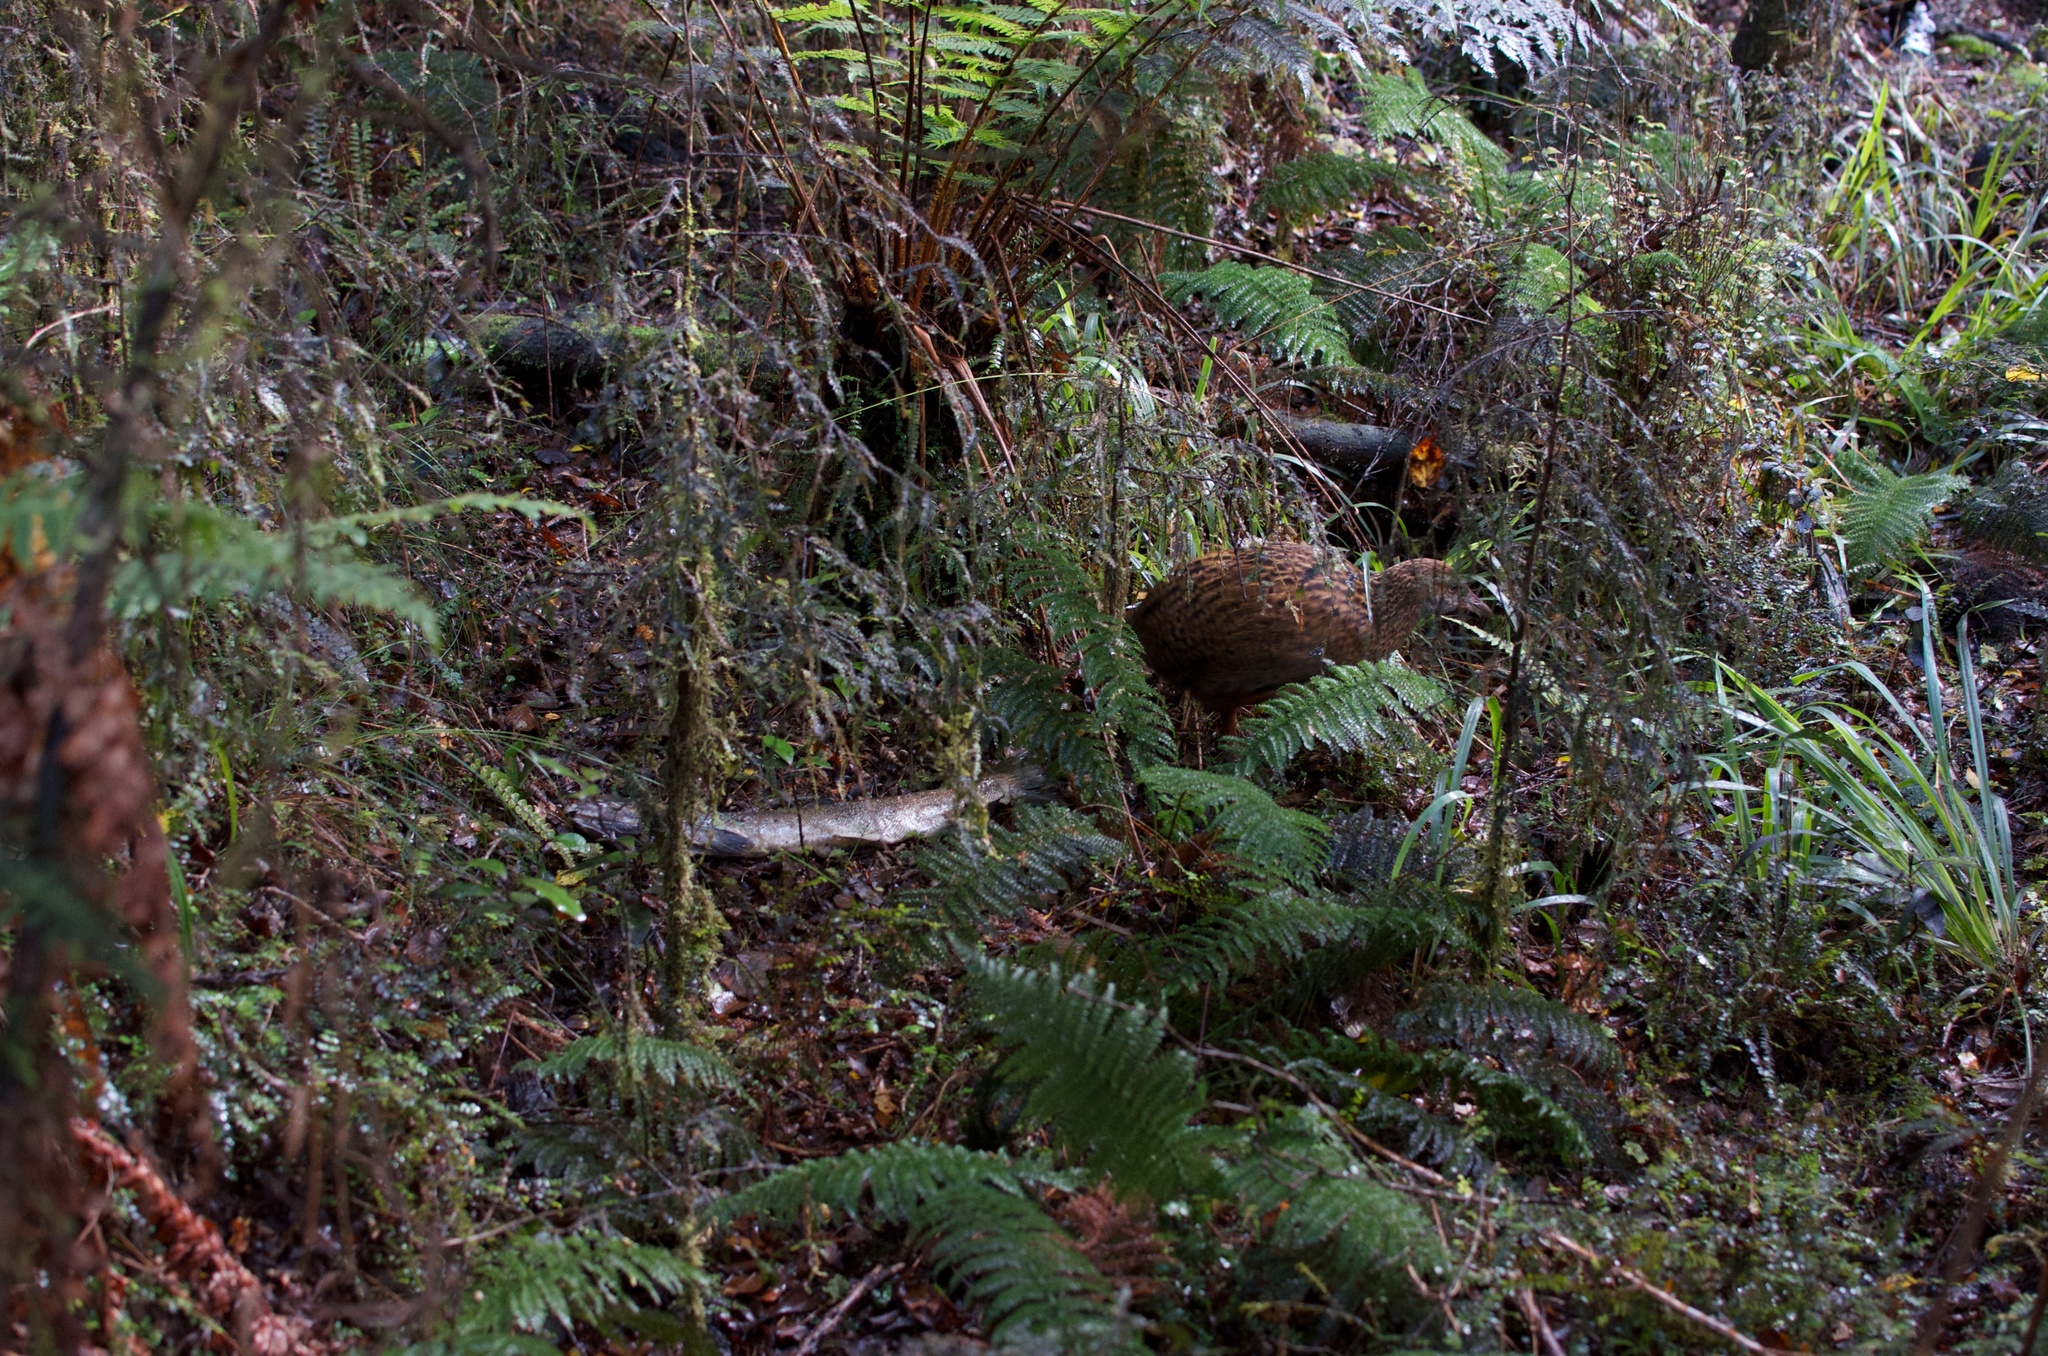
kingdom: Animalia
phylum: Chordata
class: Aves
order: Gruiformes
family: Rallidae
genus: Gallirallus
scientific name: Gallirallus australis
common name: Weka
